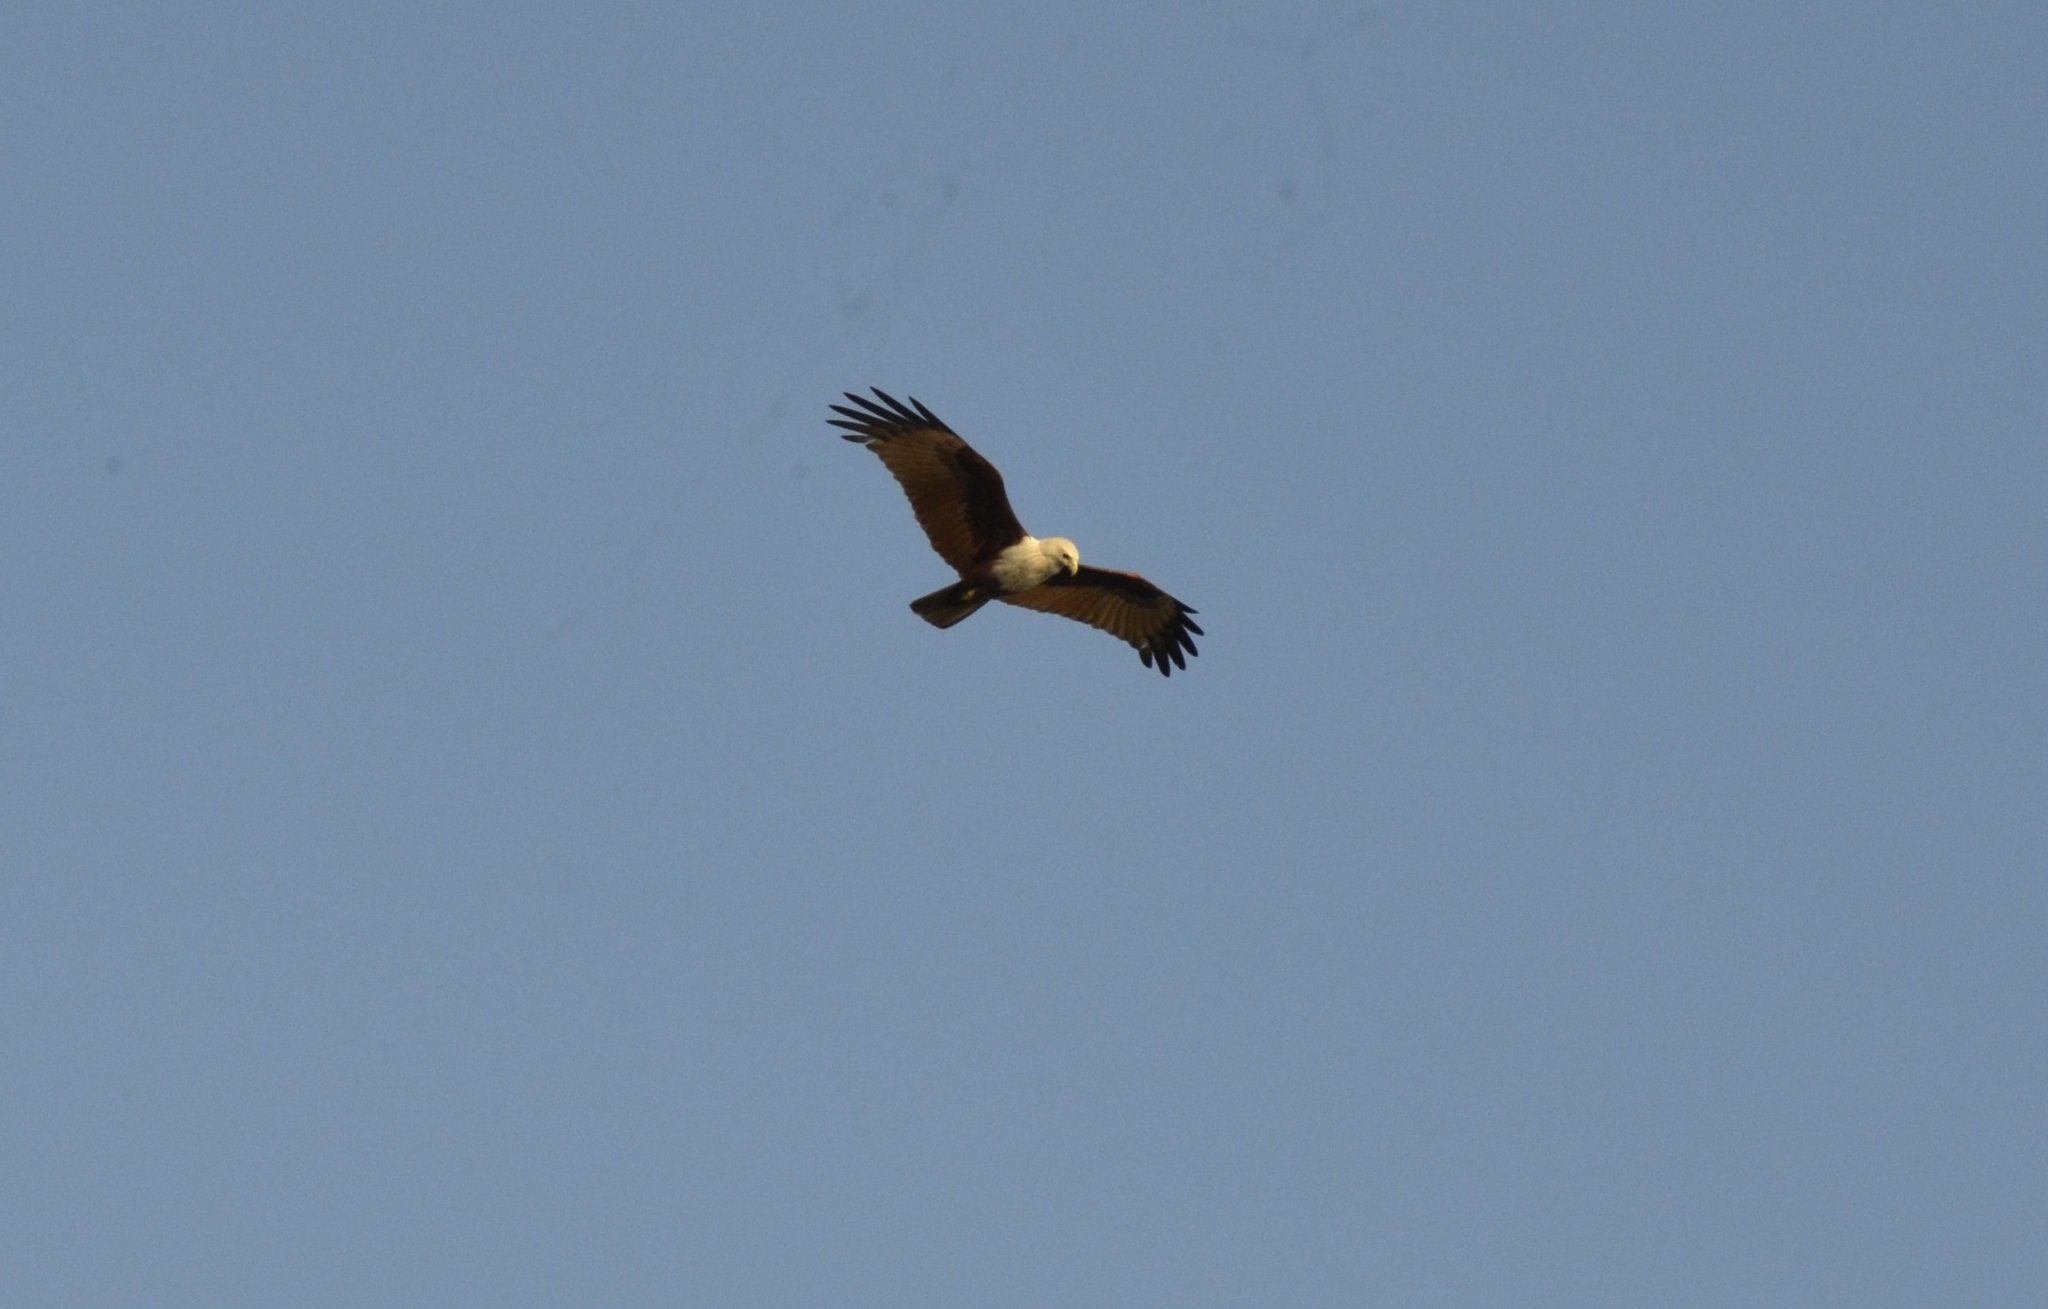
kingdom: Animalia
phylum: Chordata
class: Aves
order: Accipitriformes
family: Accipitridae
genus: Haliastur
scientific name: Haliastur indus
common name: Brahminy kite
